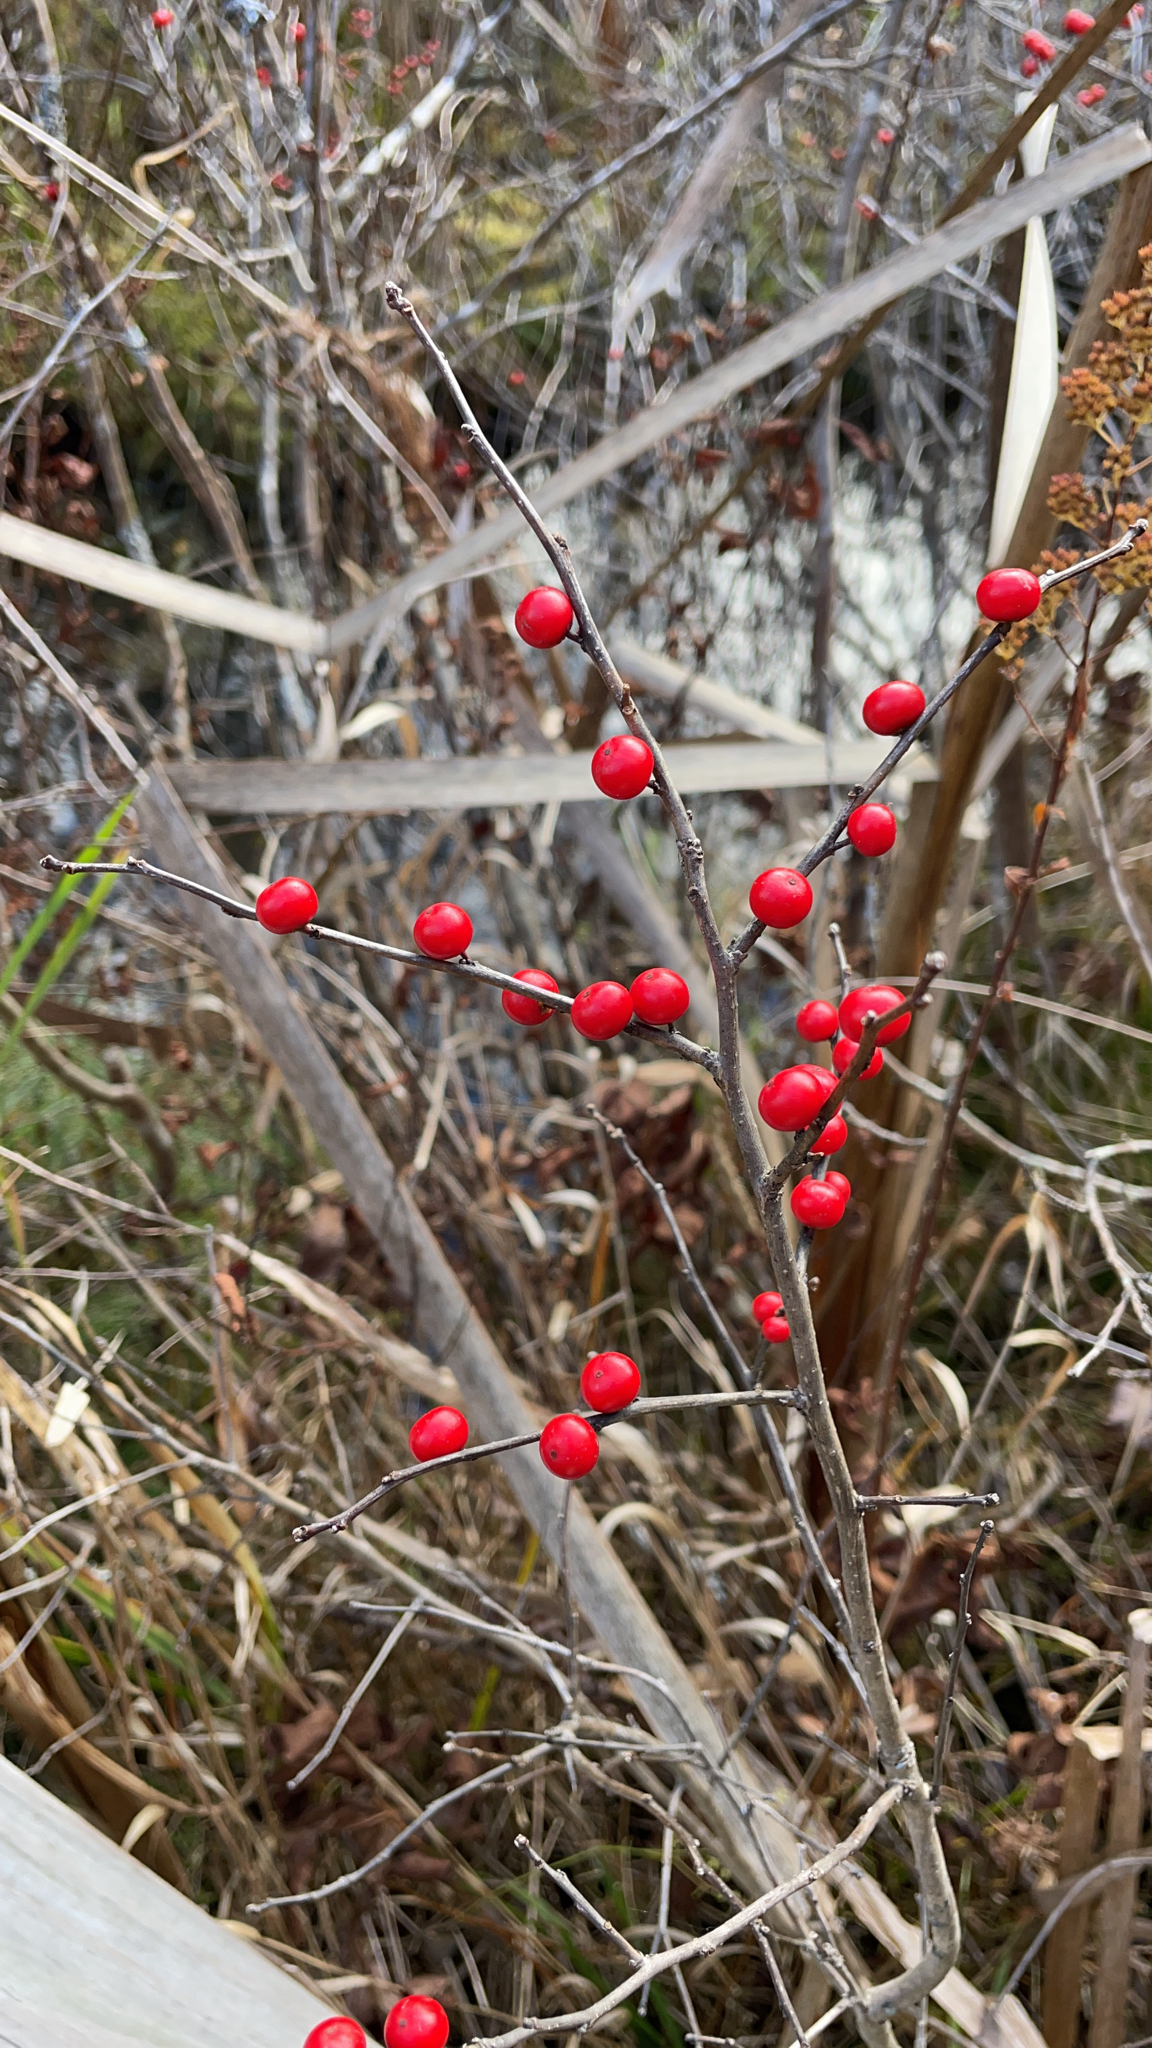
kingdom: Plantae
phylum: Tracheophyta
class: Magnoliopsida
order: Aquifoliales
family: Aquifoliaceae
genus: Ilex
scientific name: Ilex verticillata
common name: Virginia winterberry
